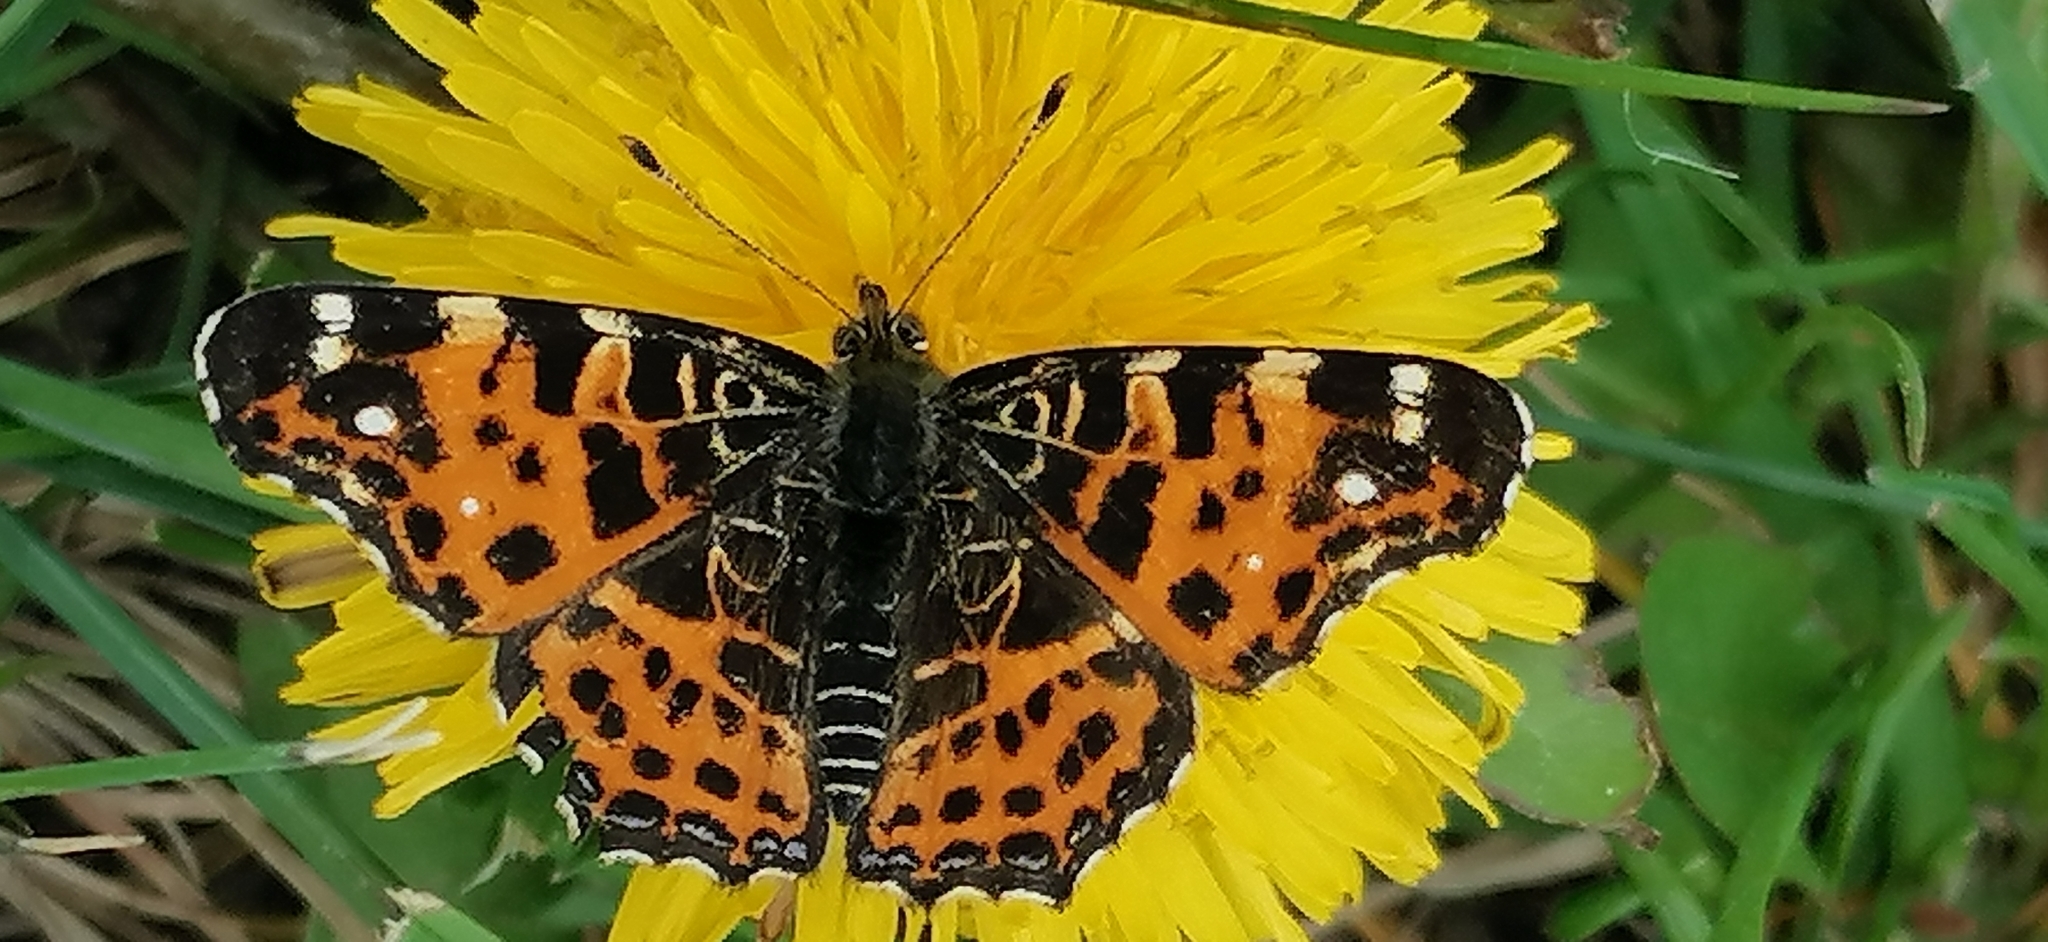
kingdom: Animalia
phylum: Arthropoda
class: Insecta
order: Lepidoptera
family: Nymphalidae
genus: Araschnia
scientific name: Araschnia levana
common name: Map butterfly
